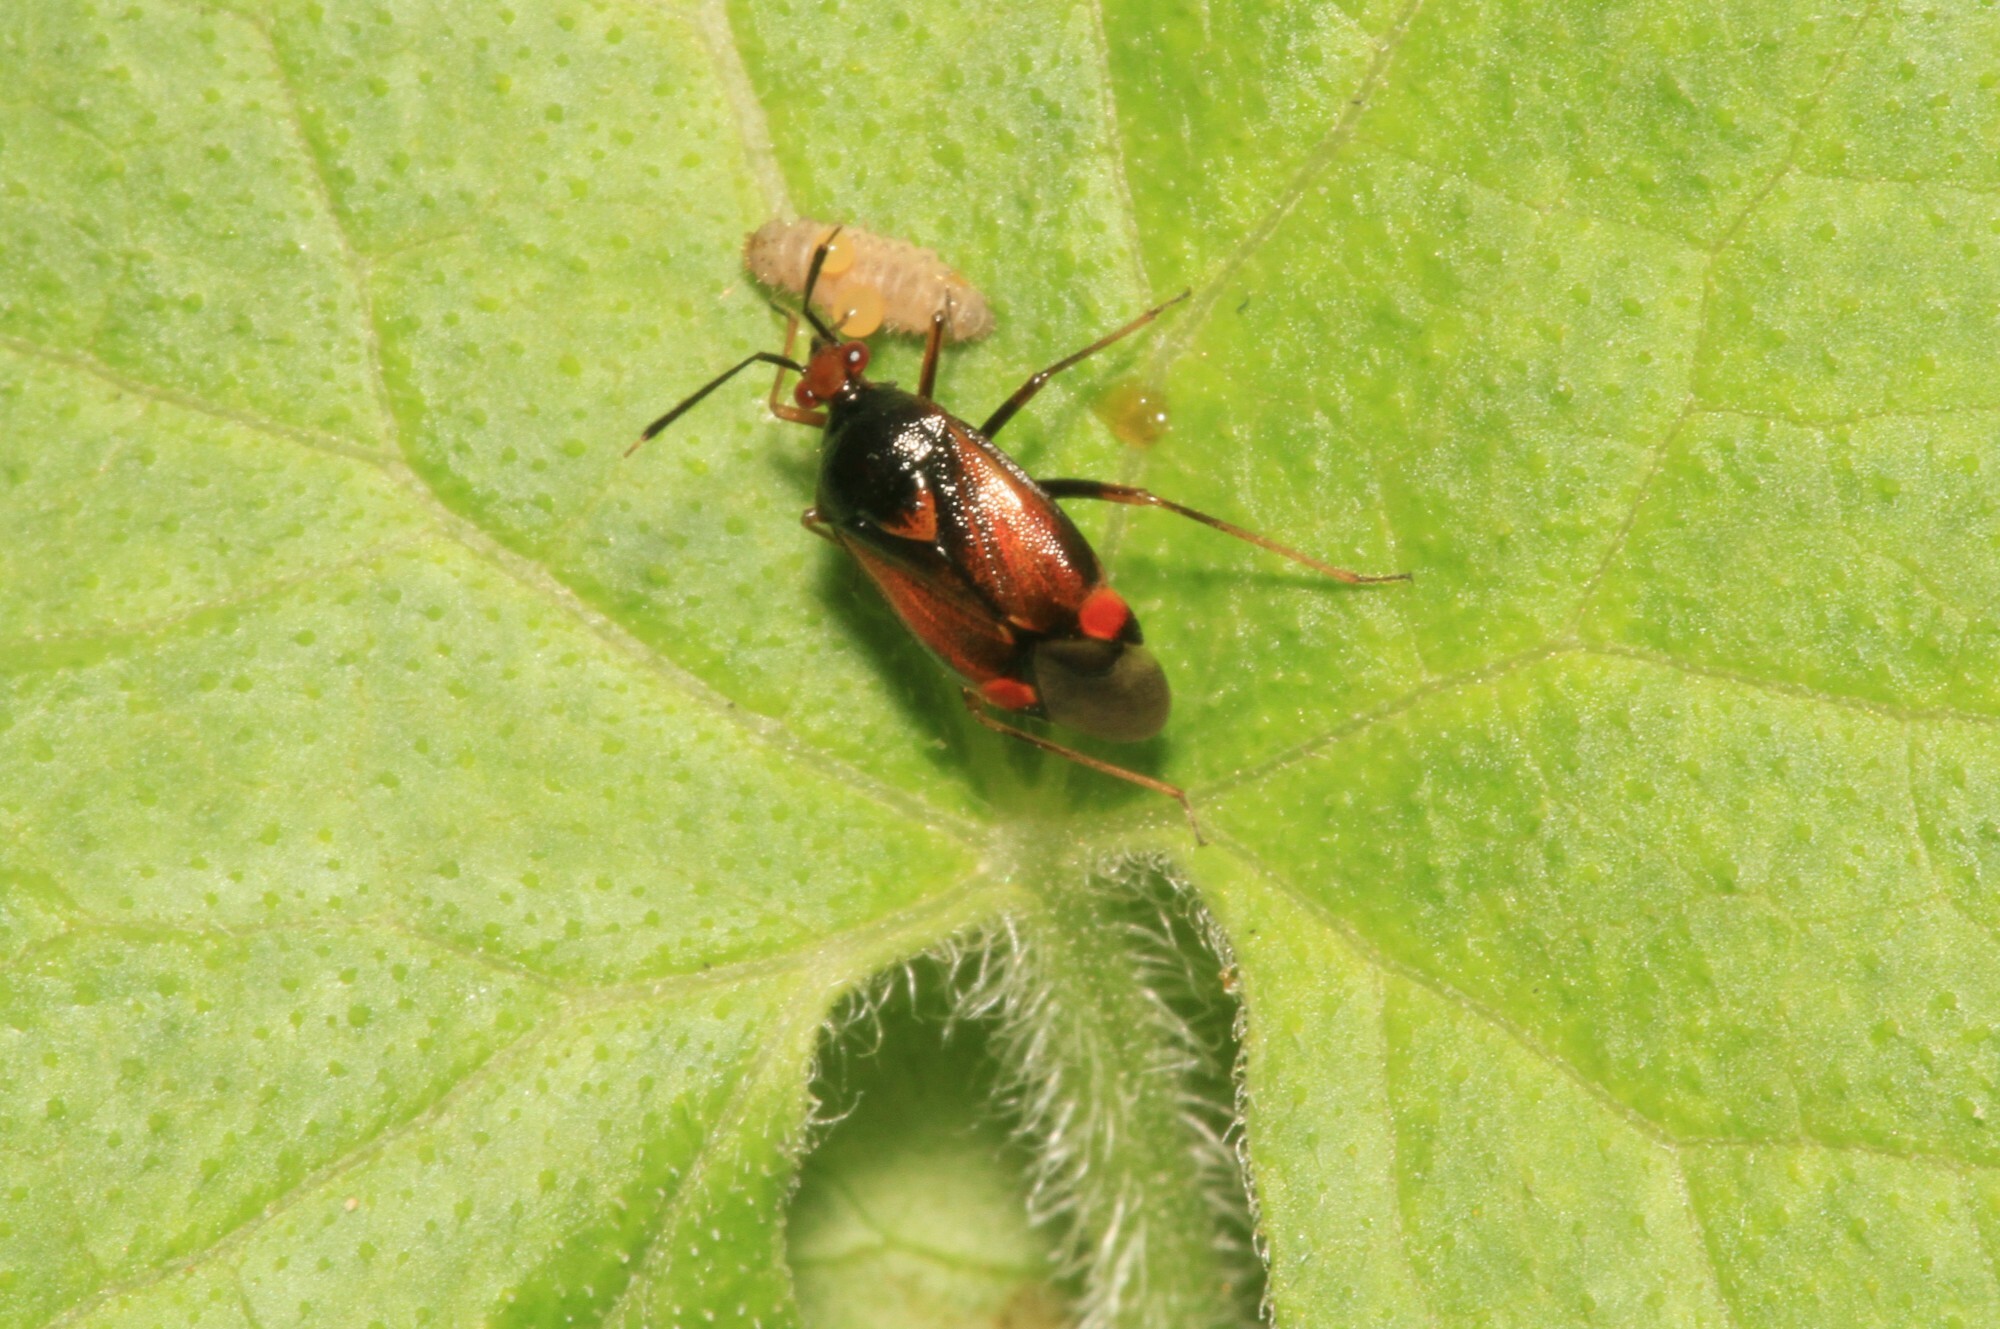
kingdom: Animalia
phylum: Arthropoda
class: Insecta
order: Hemiptera
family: Miridae
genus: Deraeocoris
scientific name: Deraeocoris ruber
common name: Plant bug
